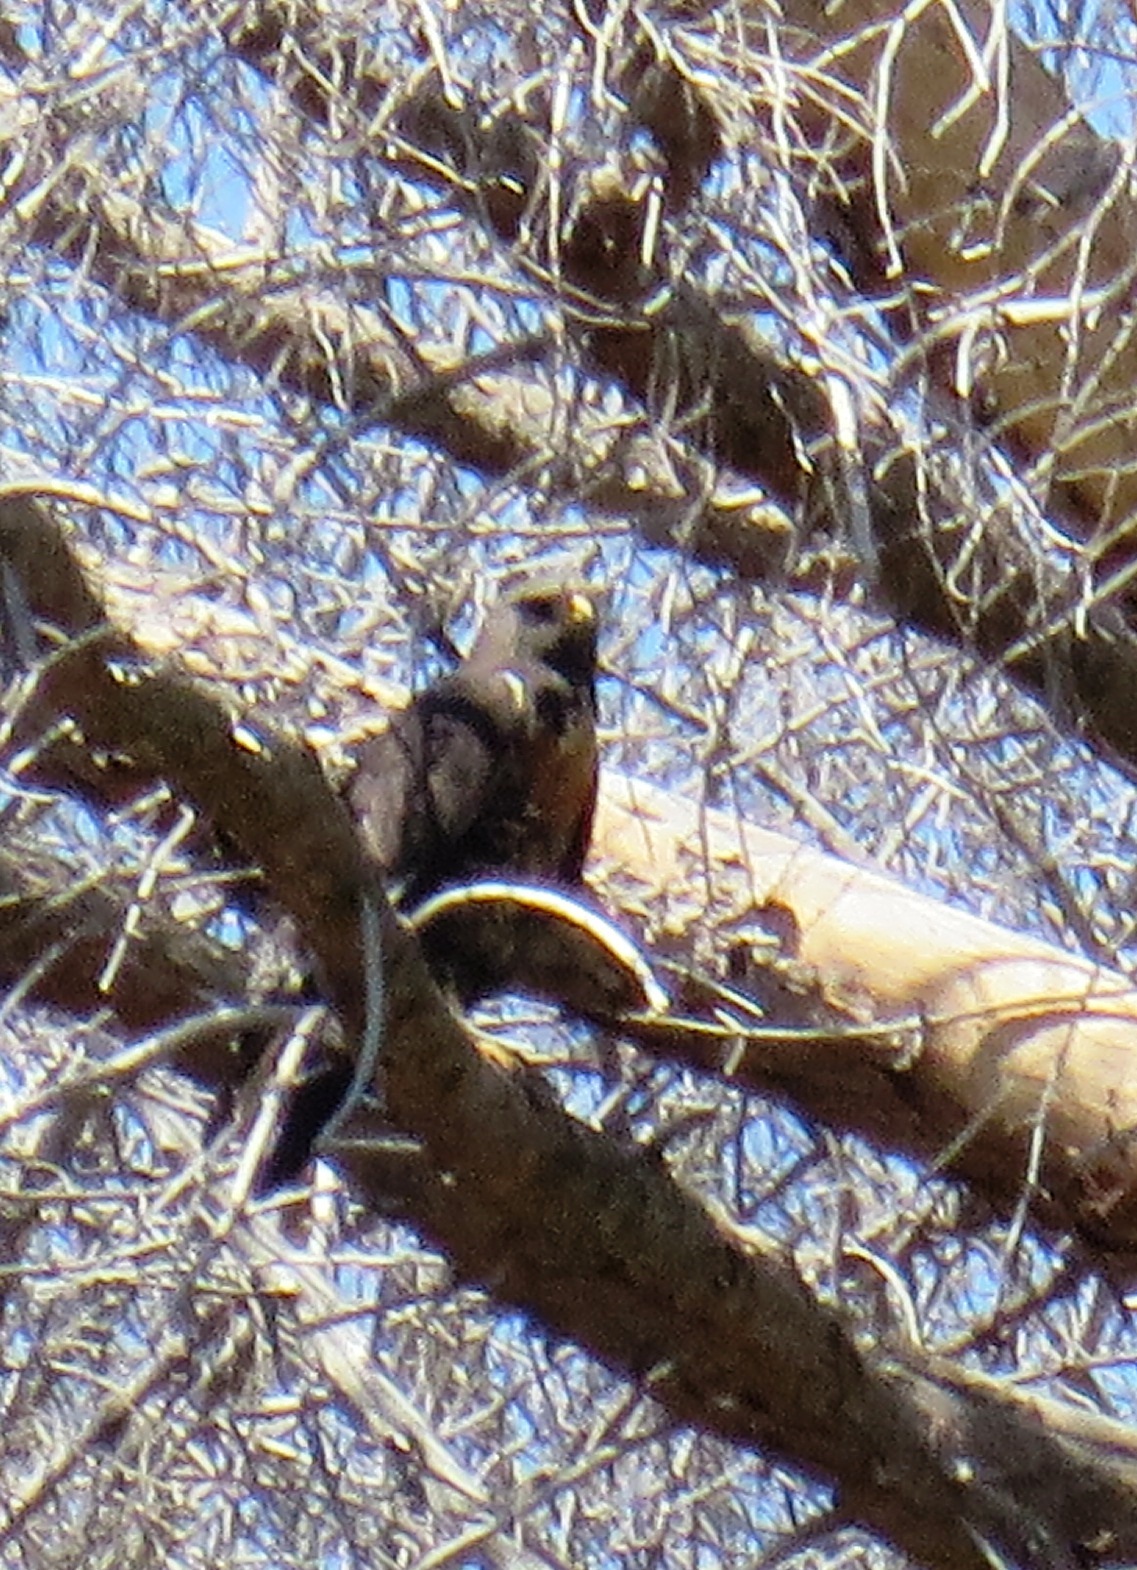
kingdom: Animalia
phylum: Chordata
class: Aves
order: Accipitriformes
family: Accipitridae
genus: Buteo
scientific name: Buteo rufofuscus
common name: Jackal buzzard
